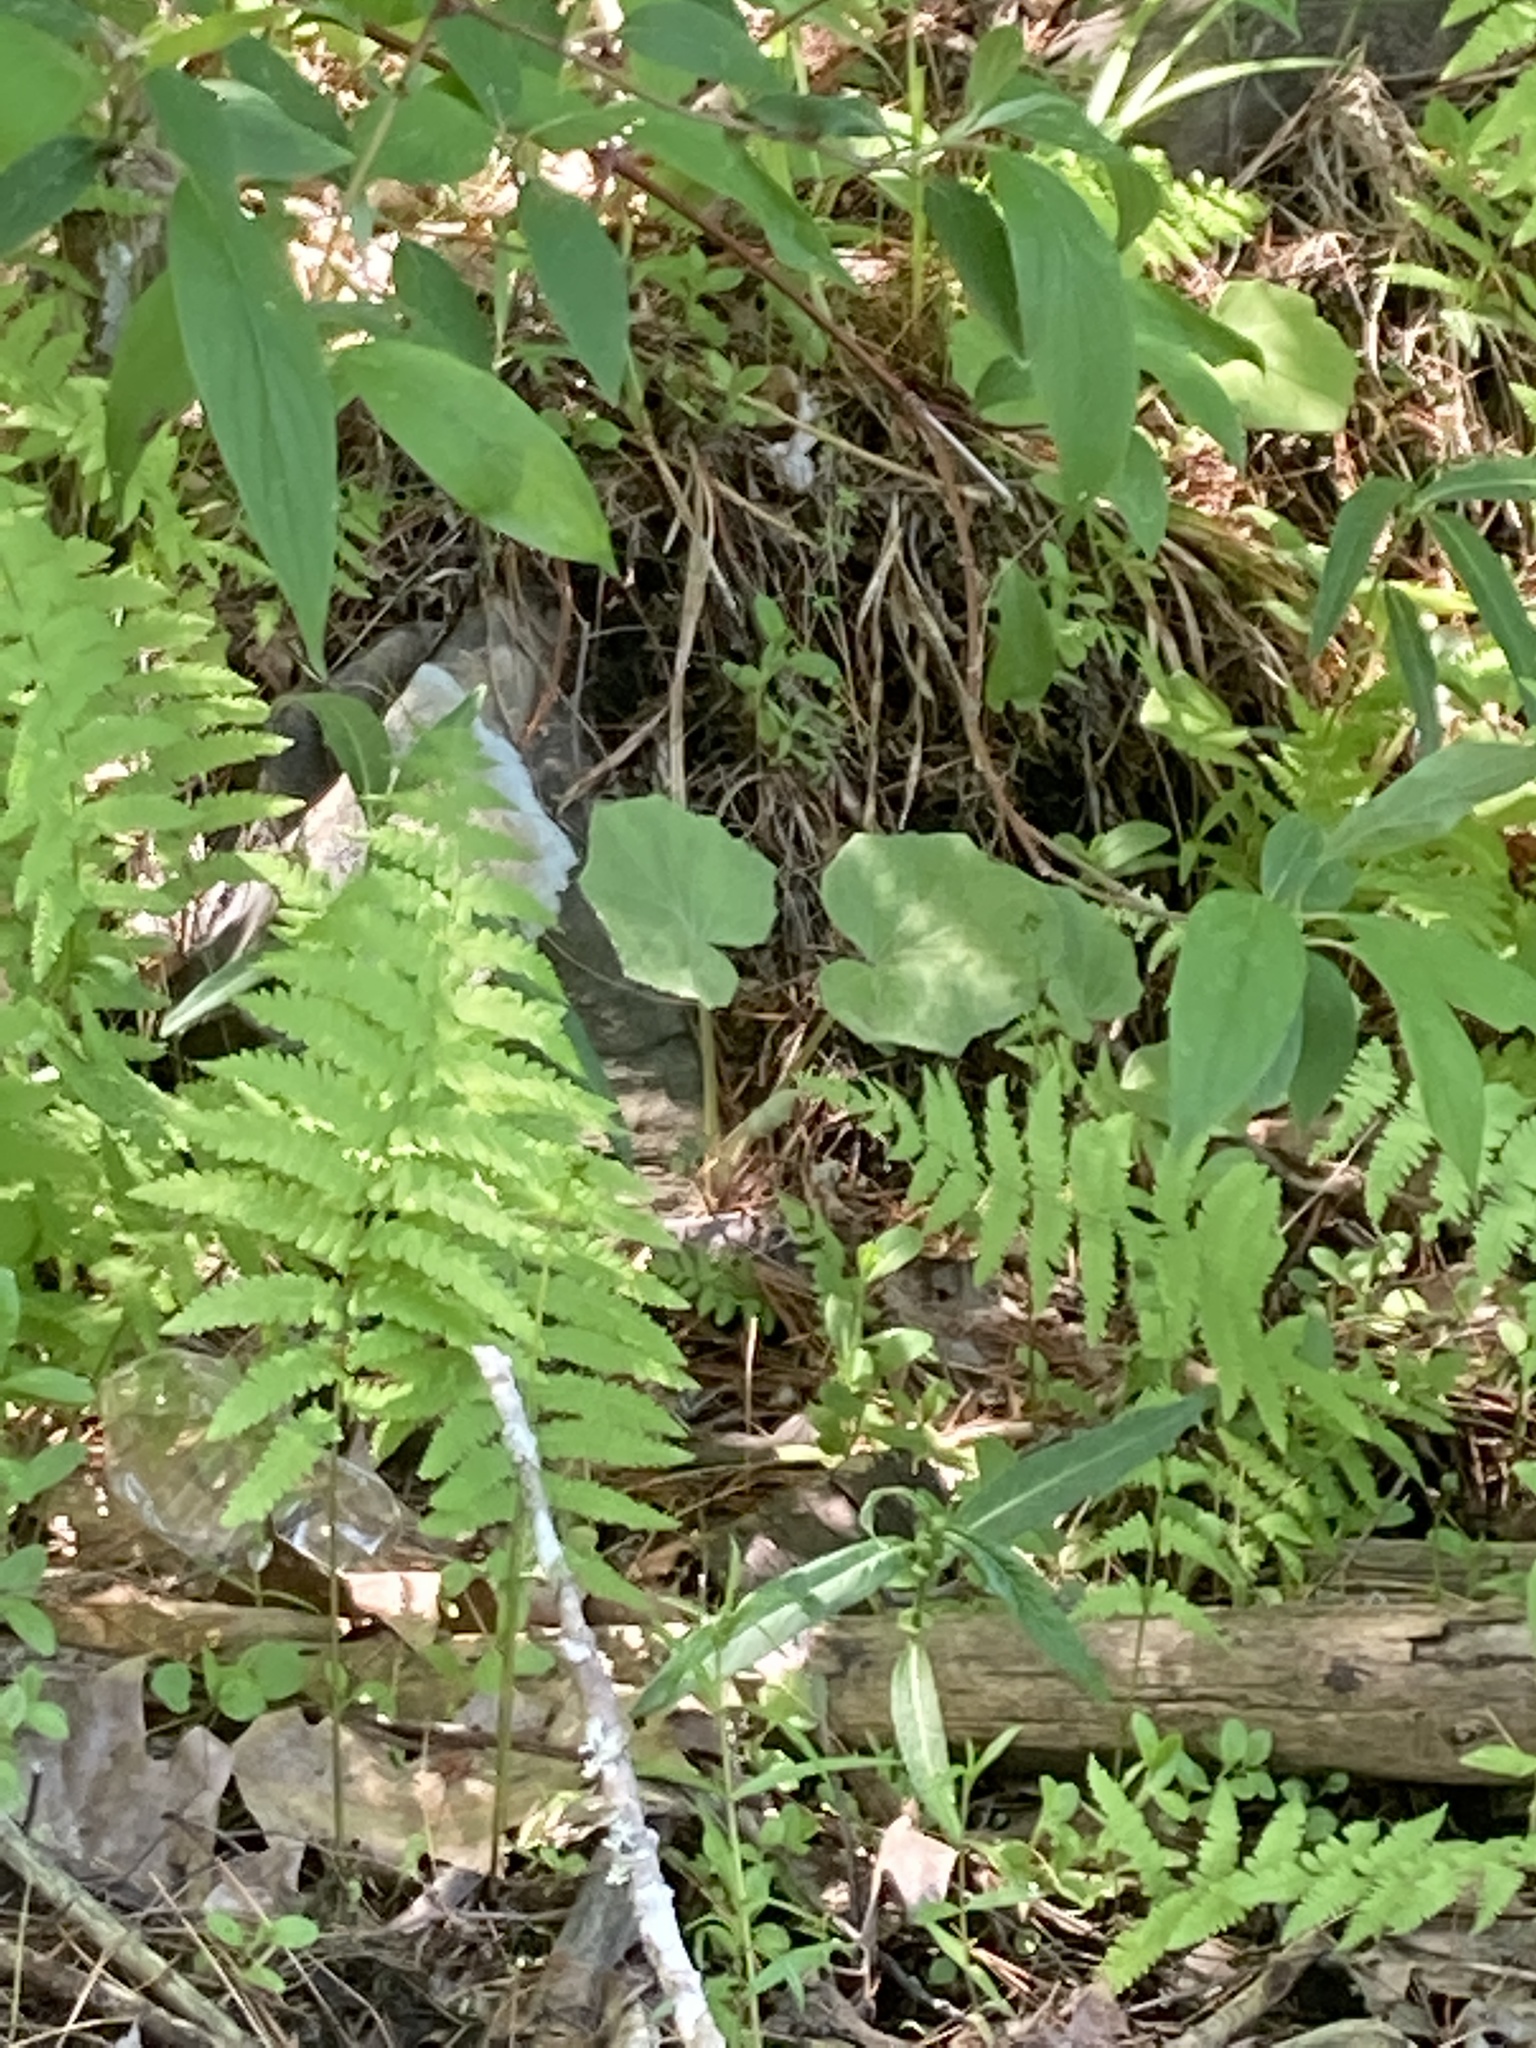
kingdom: Plantae
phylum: Tracheophyta
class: Magnoliopsida
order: Asterales
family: Asteraceae
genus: Tussilago
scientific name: Tussilago farfara
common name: Coltsfoot
